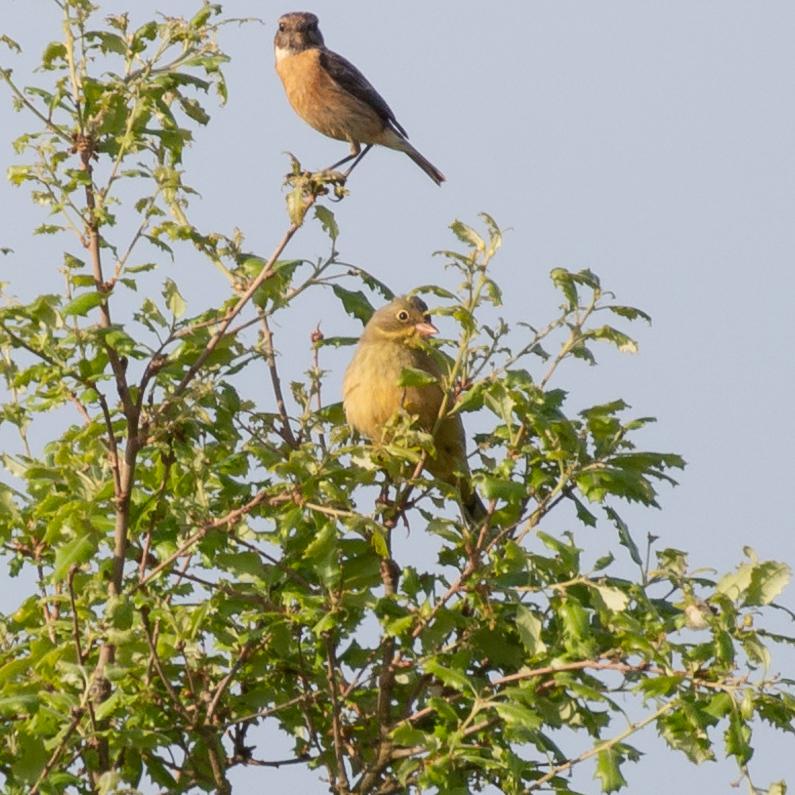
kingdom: Animalia
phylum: Chordata
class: Aves
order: Passeriformes
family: Emberizidae
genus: Emberiza
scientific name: Emberiza hortulana
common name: Ortolan bunting
